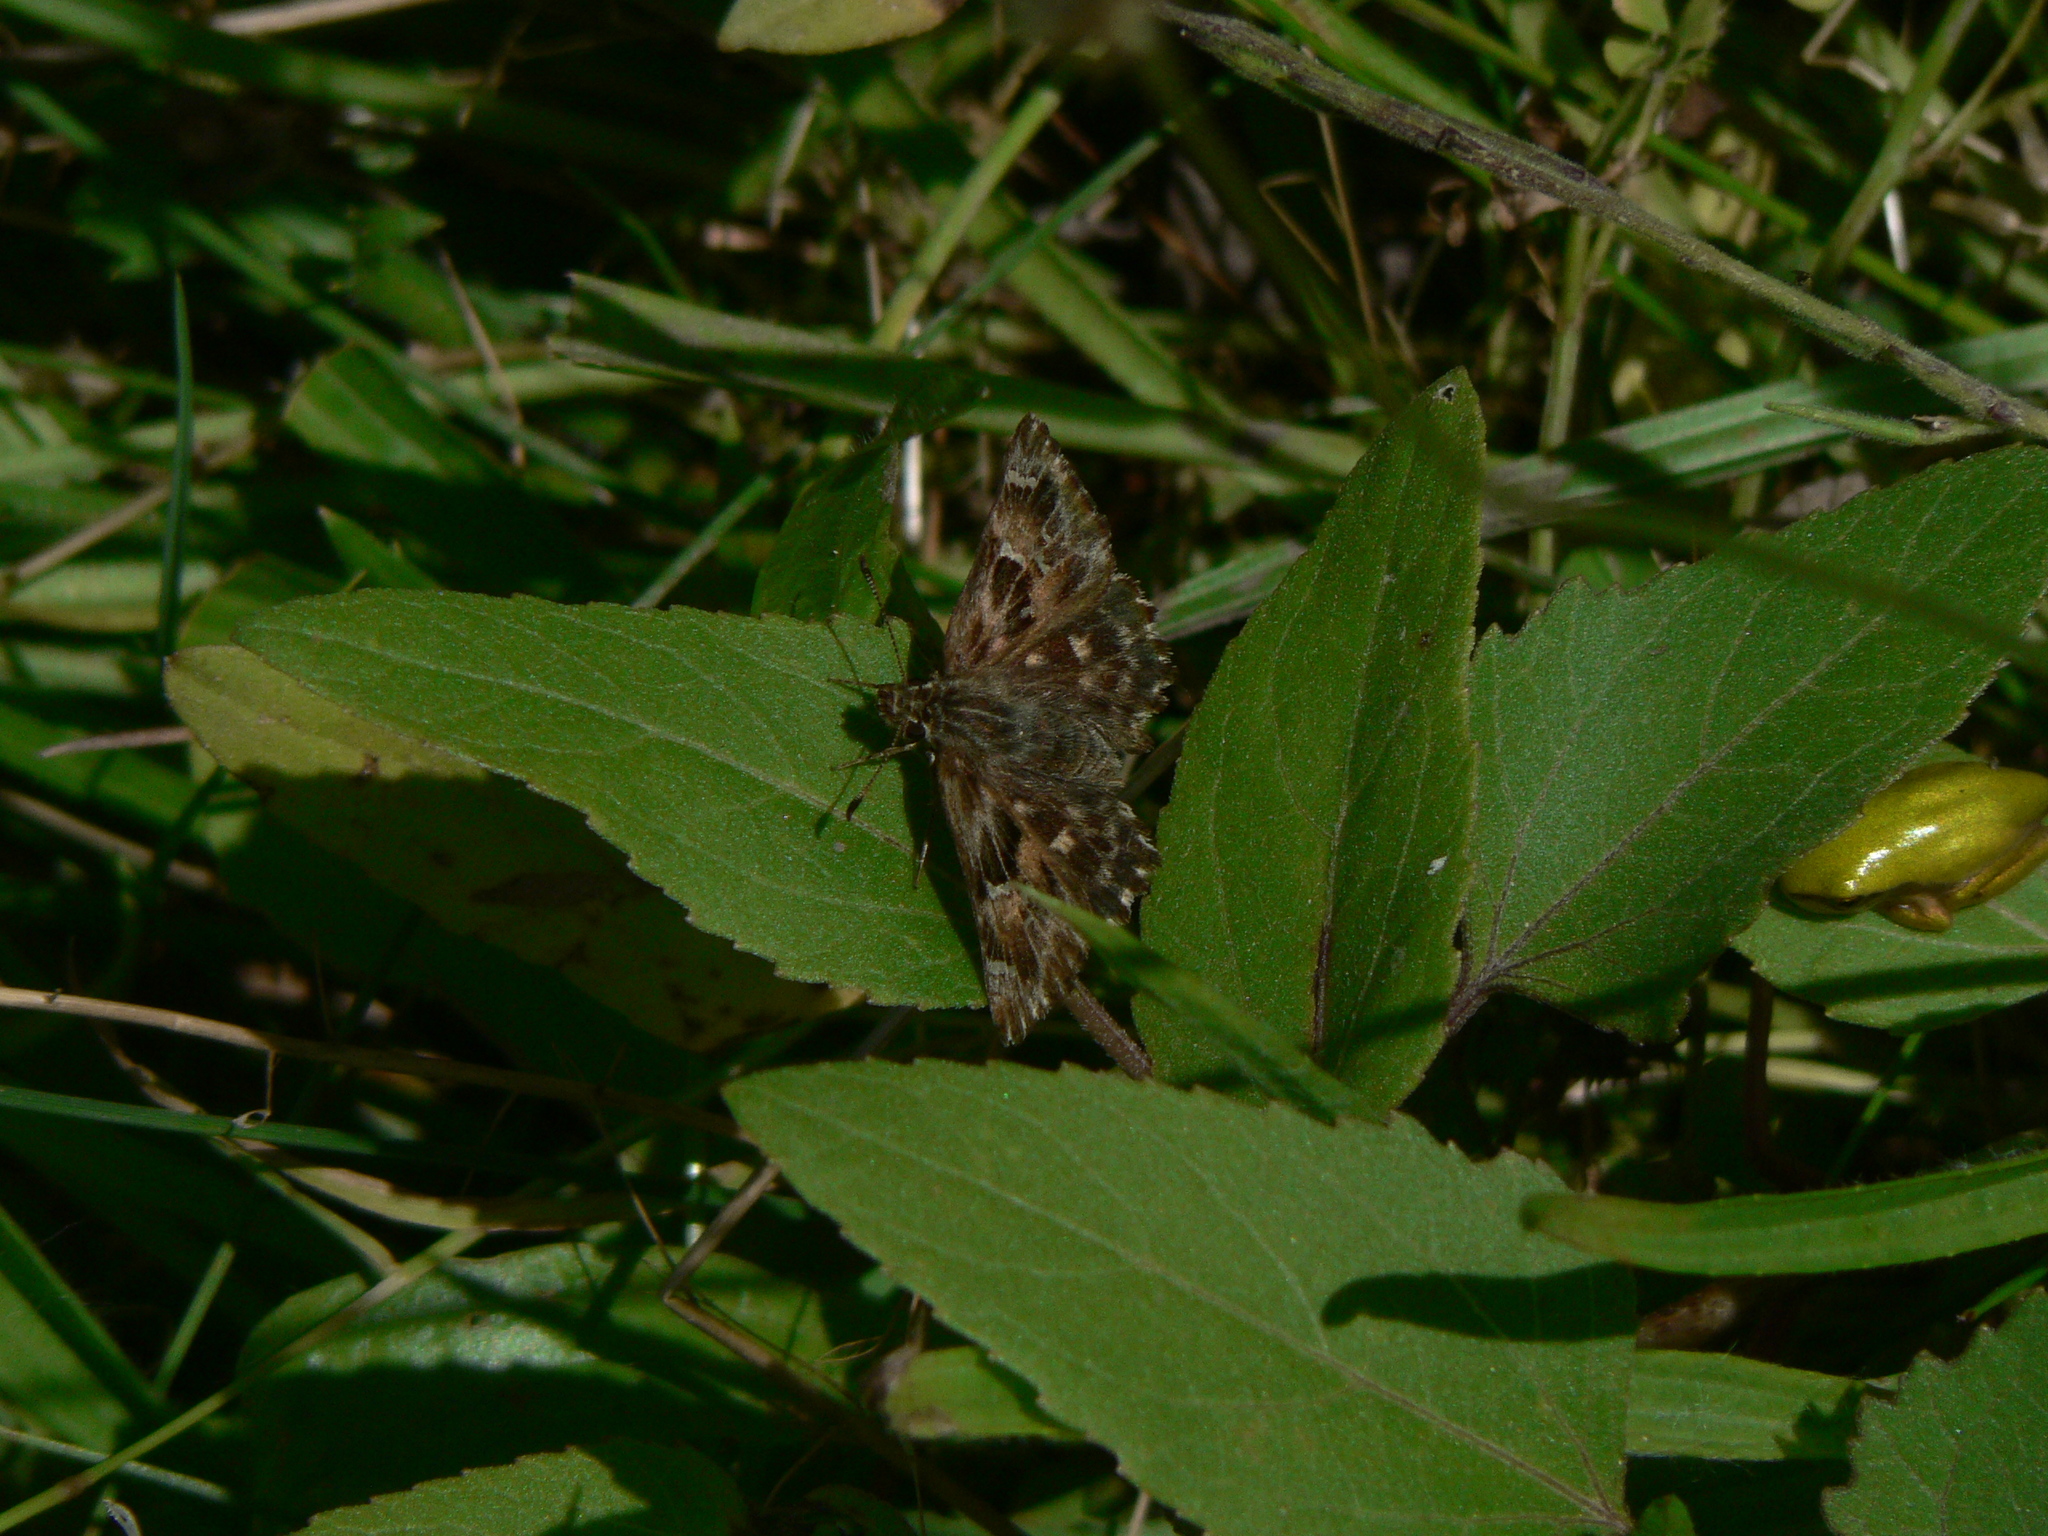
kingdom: Animalia
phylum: Arthropoda
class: Insecta
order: Lepidoptera
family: Hesperiidae
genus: Carcharodus
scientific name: Carcharodus alceae
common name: Mallow skipper
